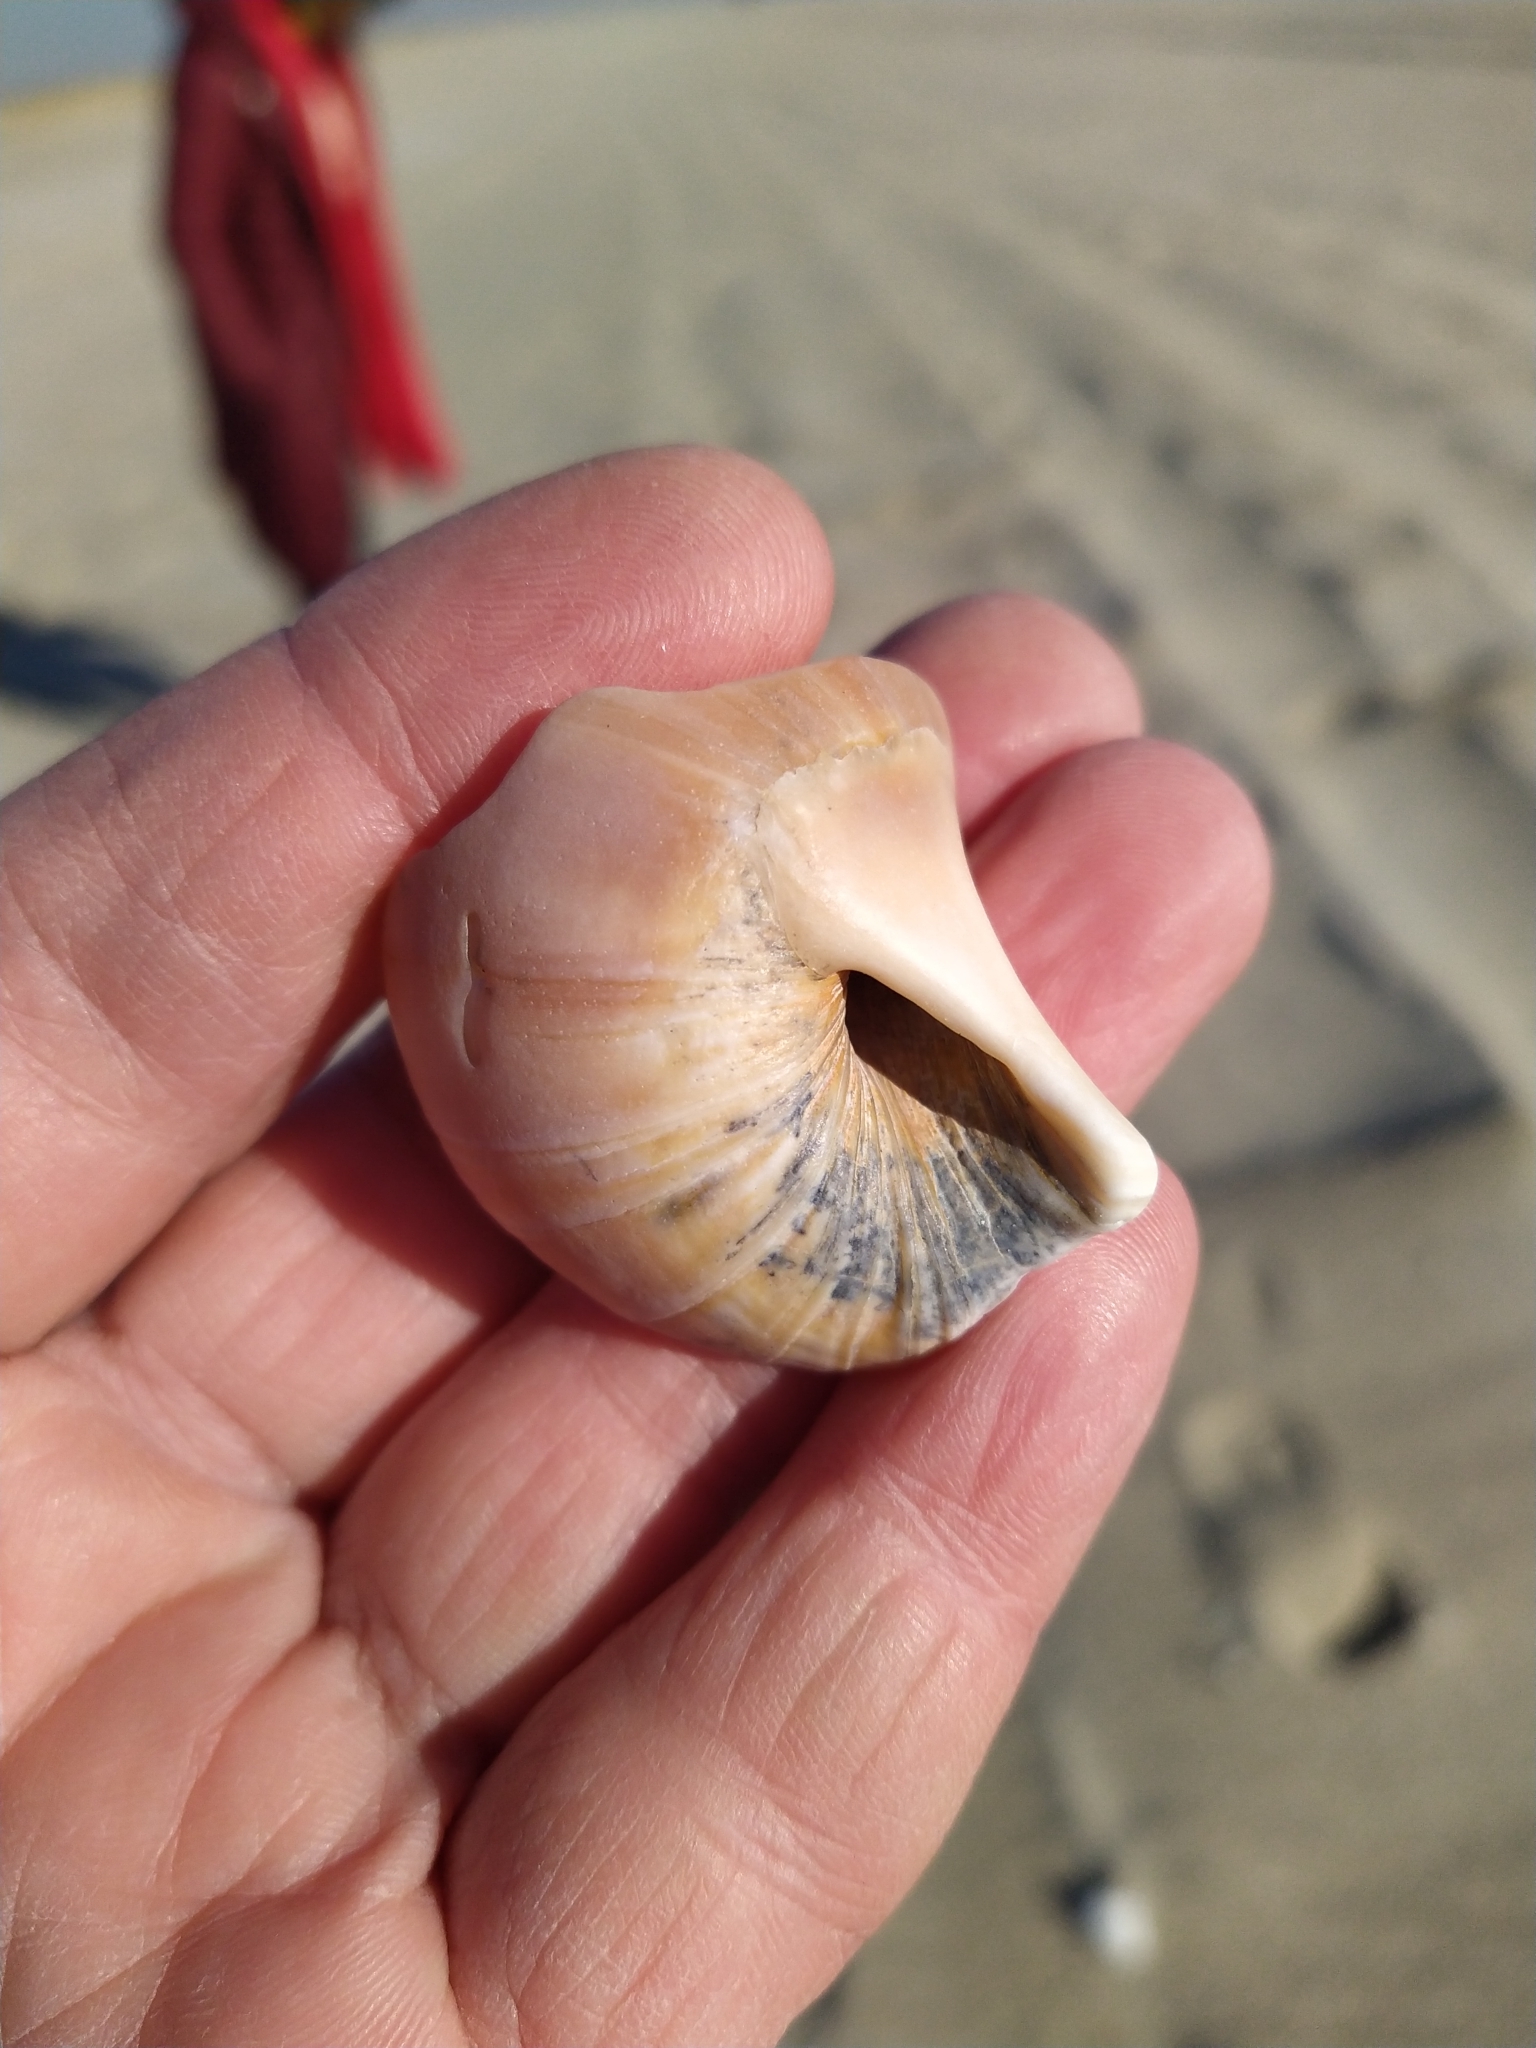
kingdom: Animalia
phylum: Mollusca
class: Gastropoda
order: Littorinimorpha
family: Naticidae
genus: Euspira
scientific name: Euspira heros
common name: Common northern moonsnail
